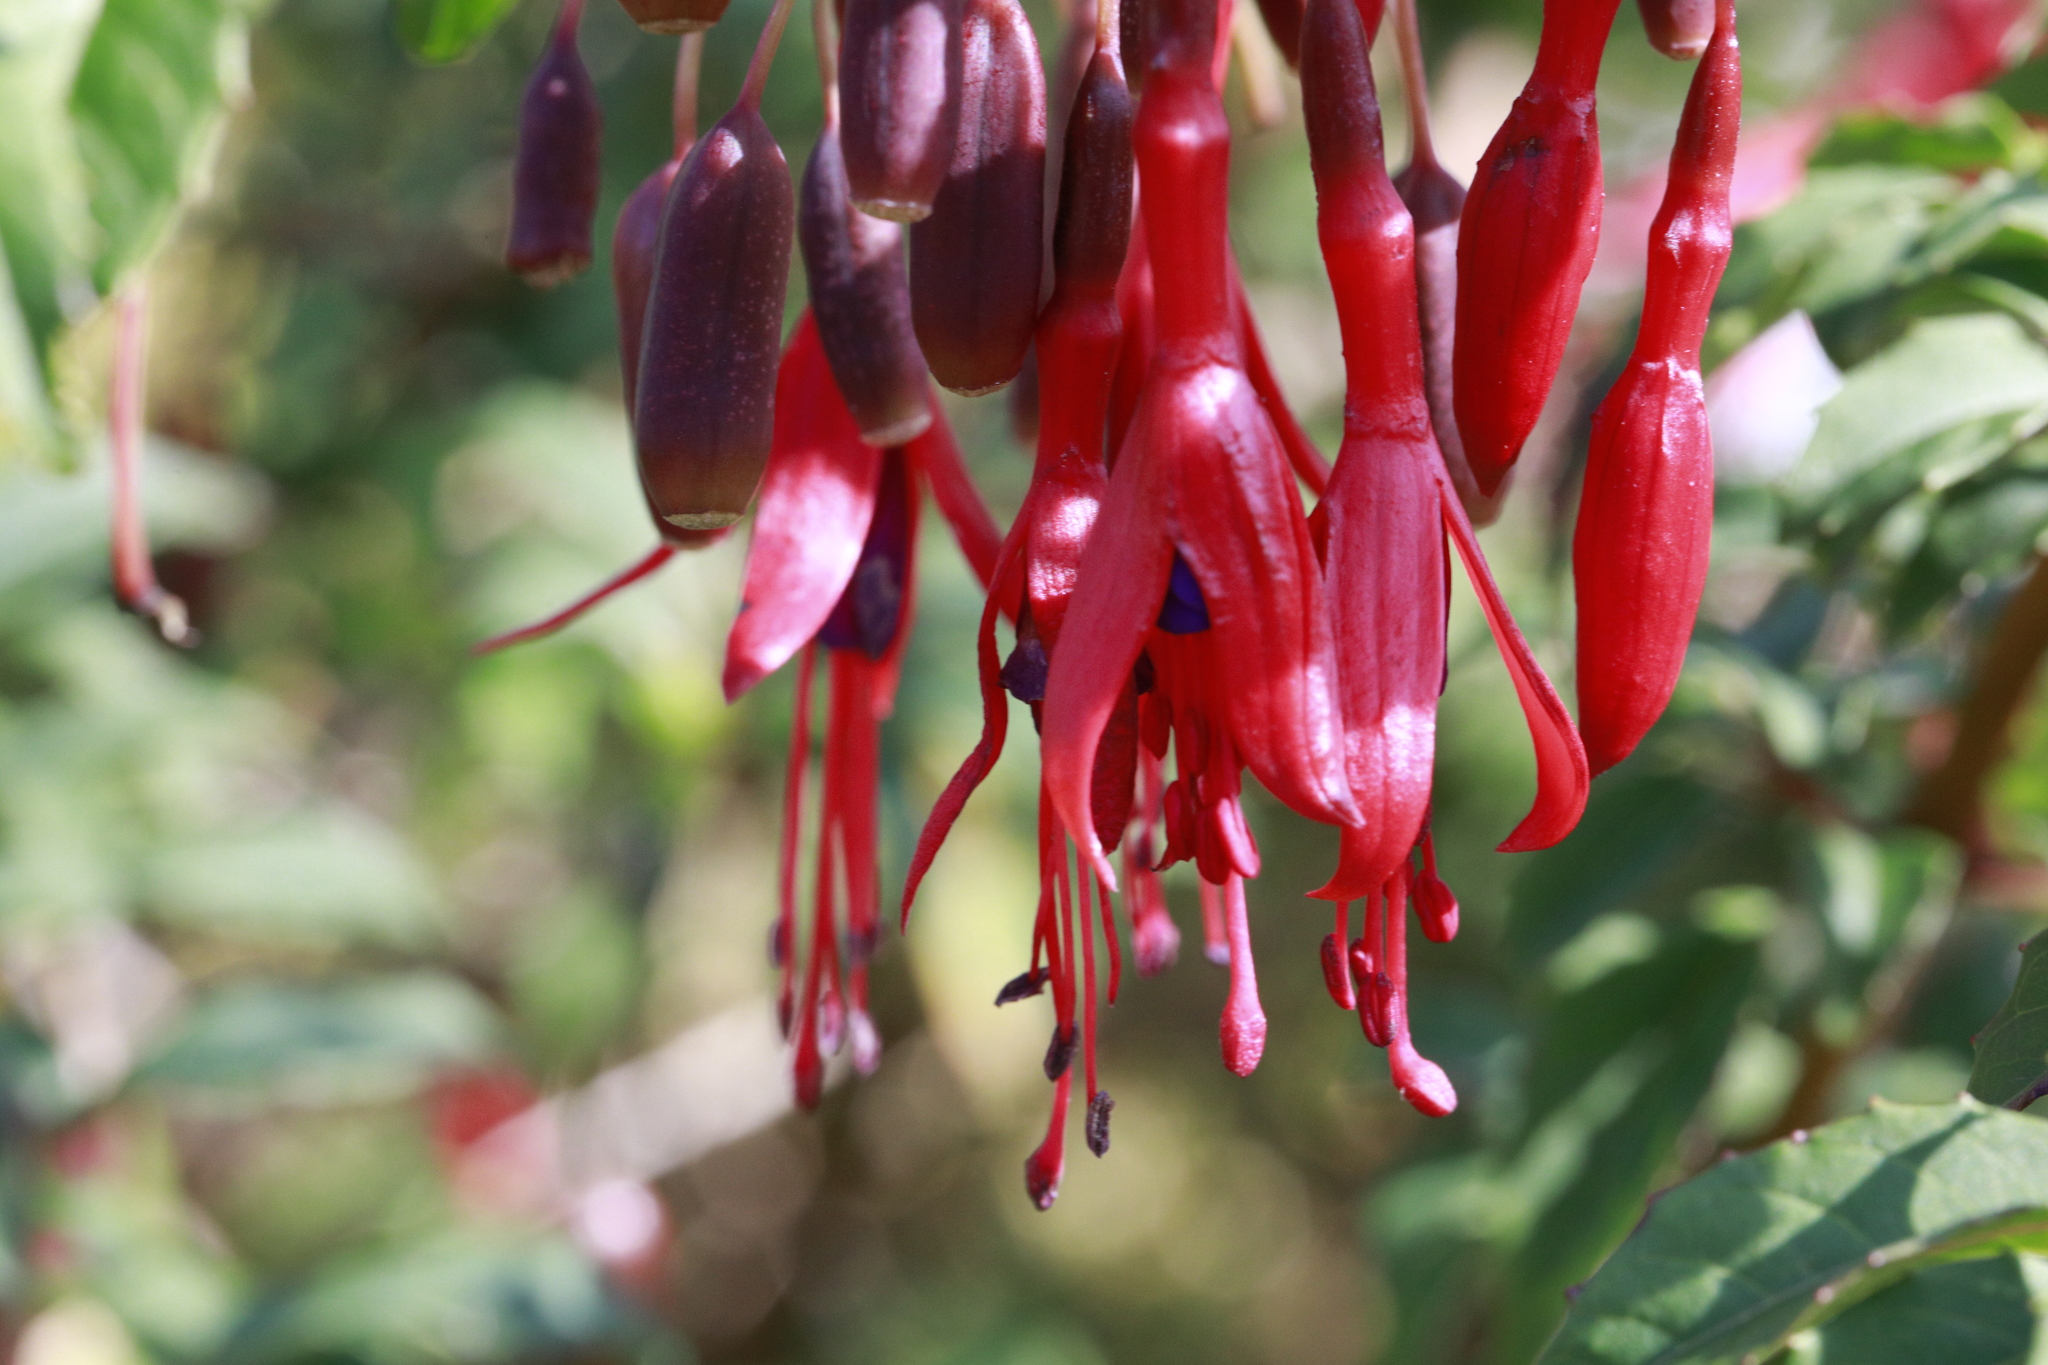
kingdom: Plantae
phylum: Tracheophyta
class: Magnoliopsida
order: Myrtales
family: Onagraceae
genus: Fuchsia
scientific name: Fuchsia magellanica
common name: Hardy fuchsia
